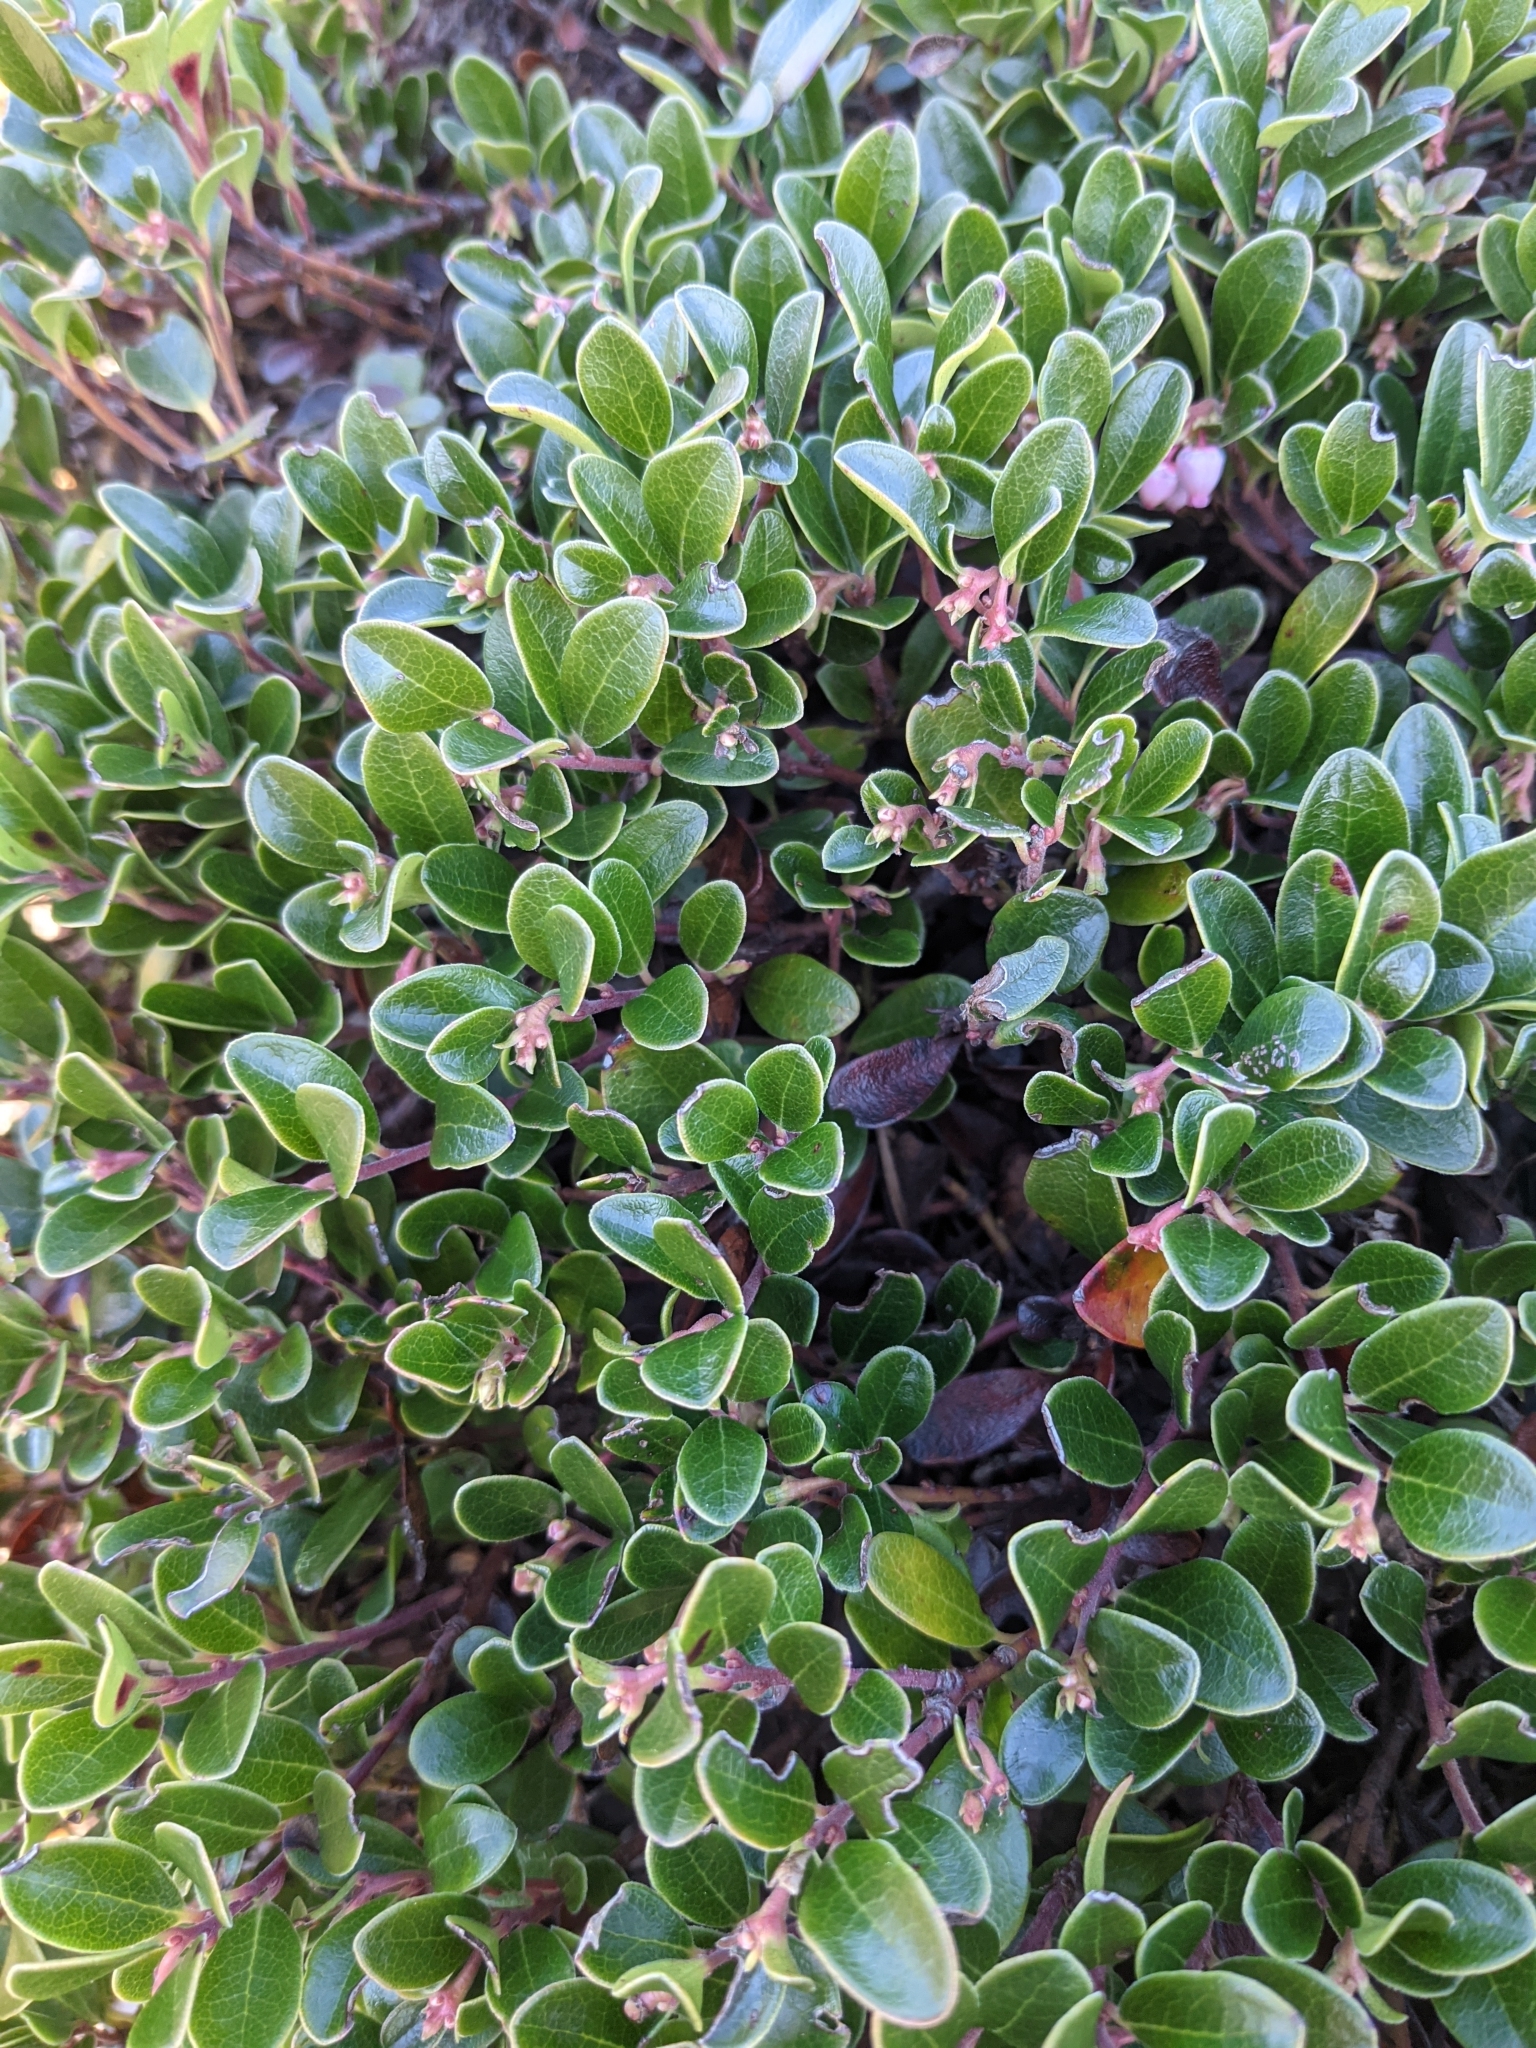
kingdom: Plantae
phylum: Tracheophyta
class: Magnoliopsida
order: Ericales
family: Ericaceae
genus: Arctostaphylos
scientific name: Arctostaphylos uva-ursi
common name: Bearberry
